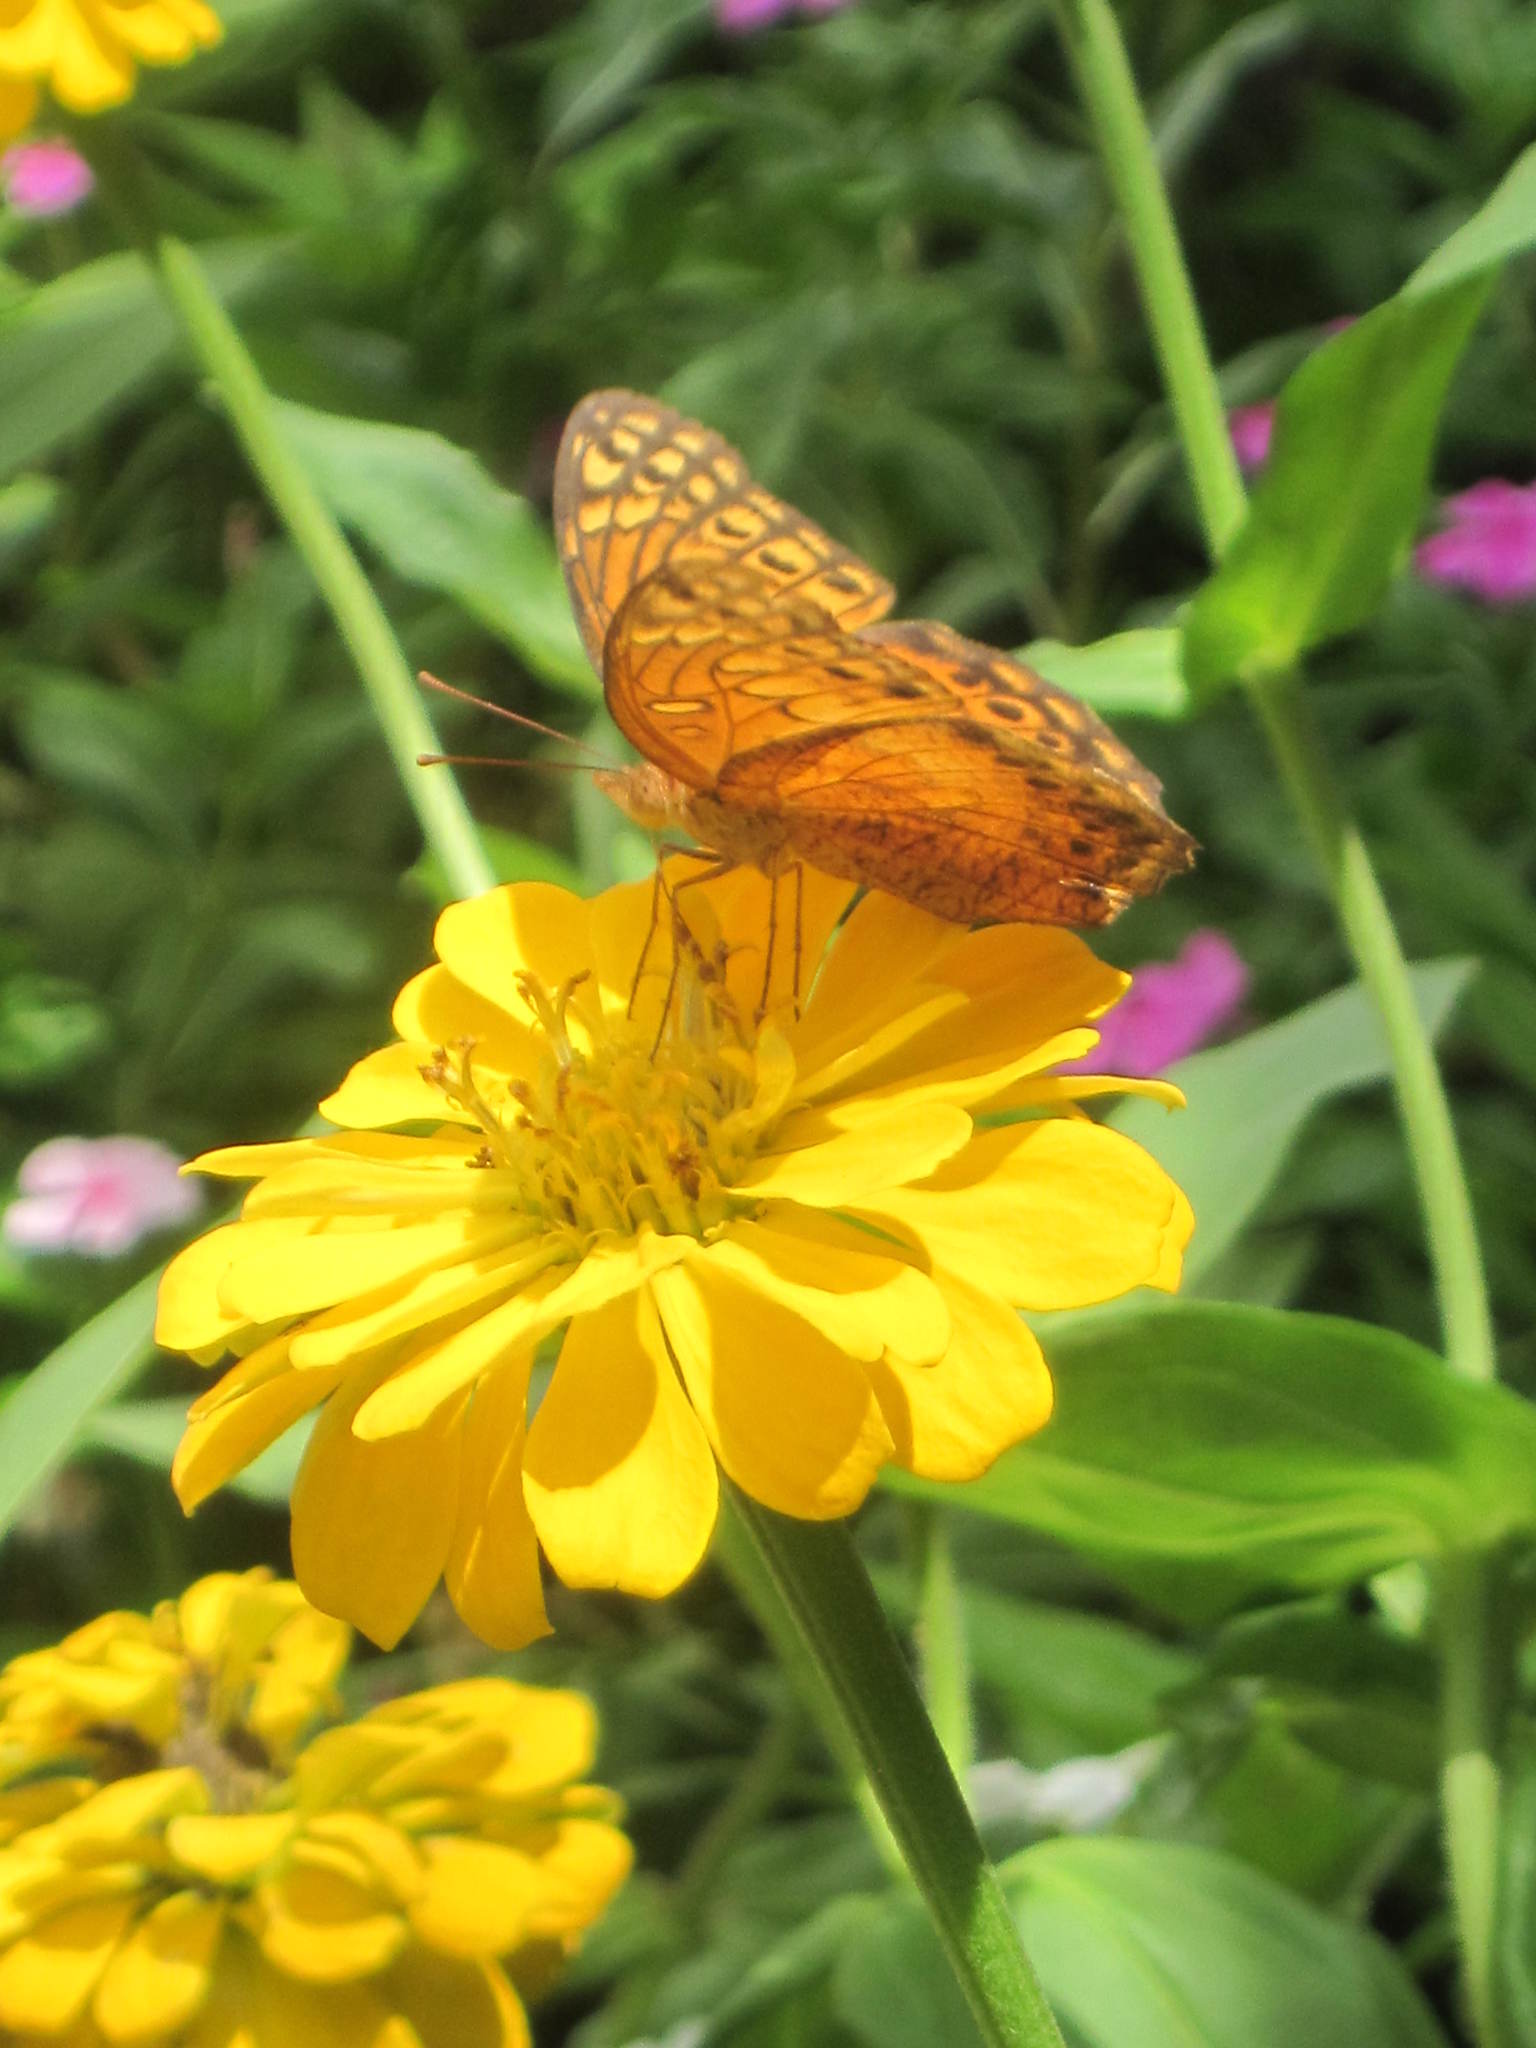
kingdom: Animalia
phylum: Arthropoda
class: Insecta
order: Lepidoptera
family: Nymphalidae
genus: Euptoieta
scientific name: Euptoieta hegesia
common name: Mexican fritillary
